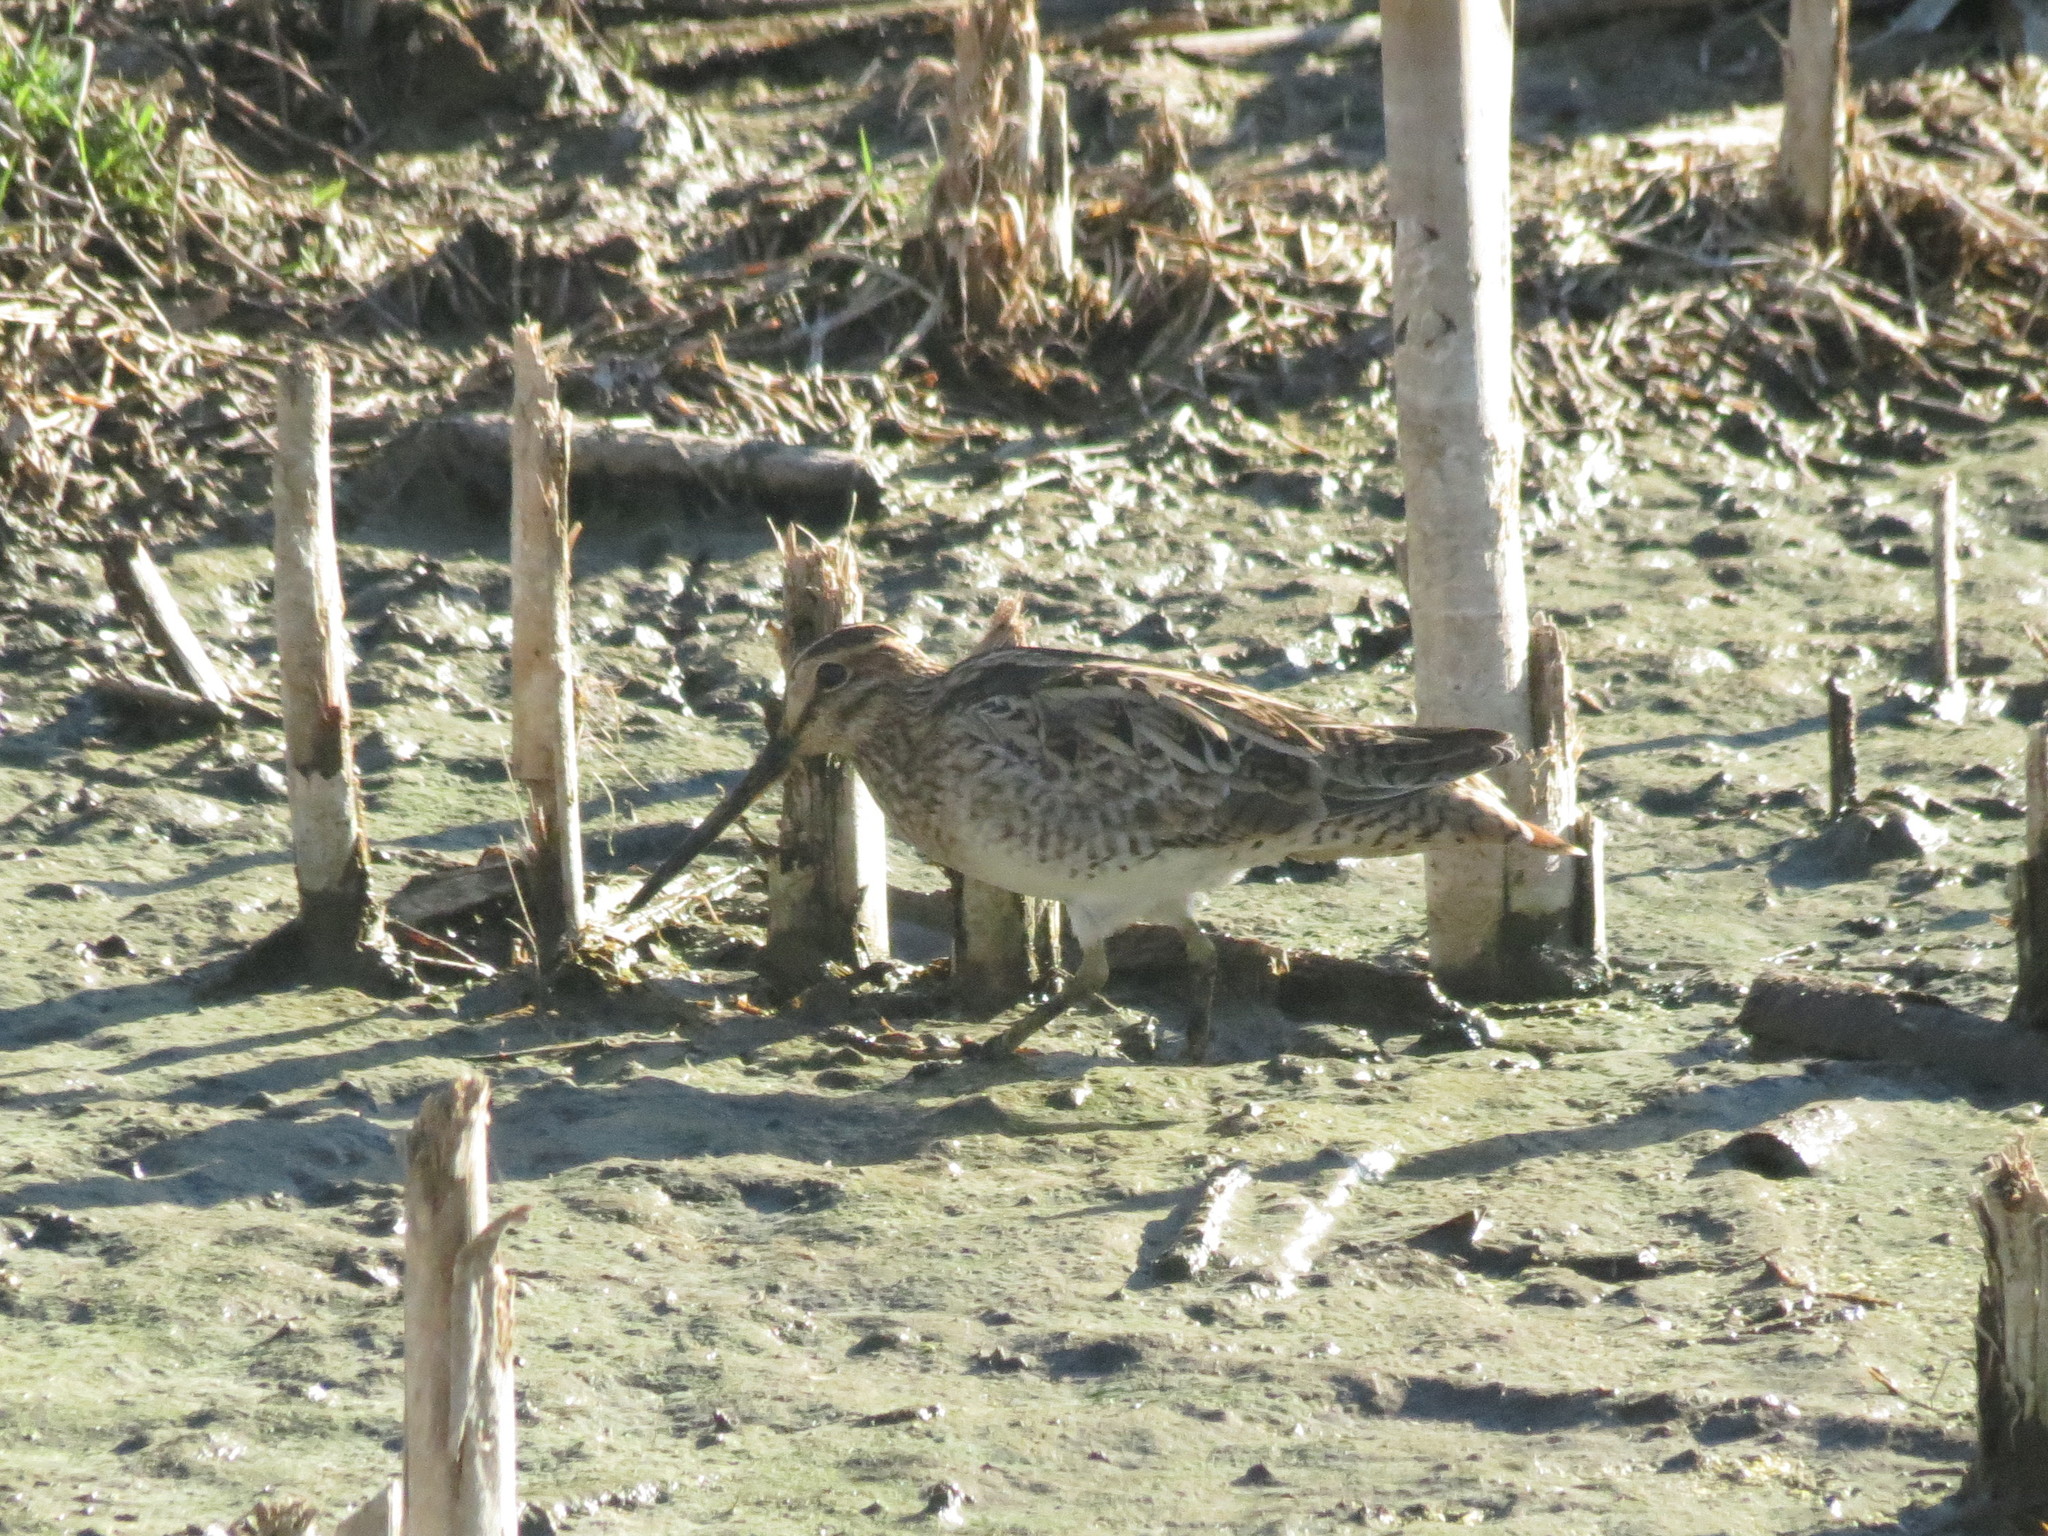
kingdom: Animalia
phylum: Chordata
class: Aves
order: Charadriiformes
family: Scolopacidae
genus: Gallinago
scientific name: Gallinago hardwickii
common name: Latham's snipe
